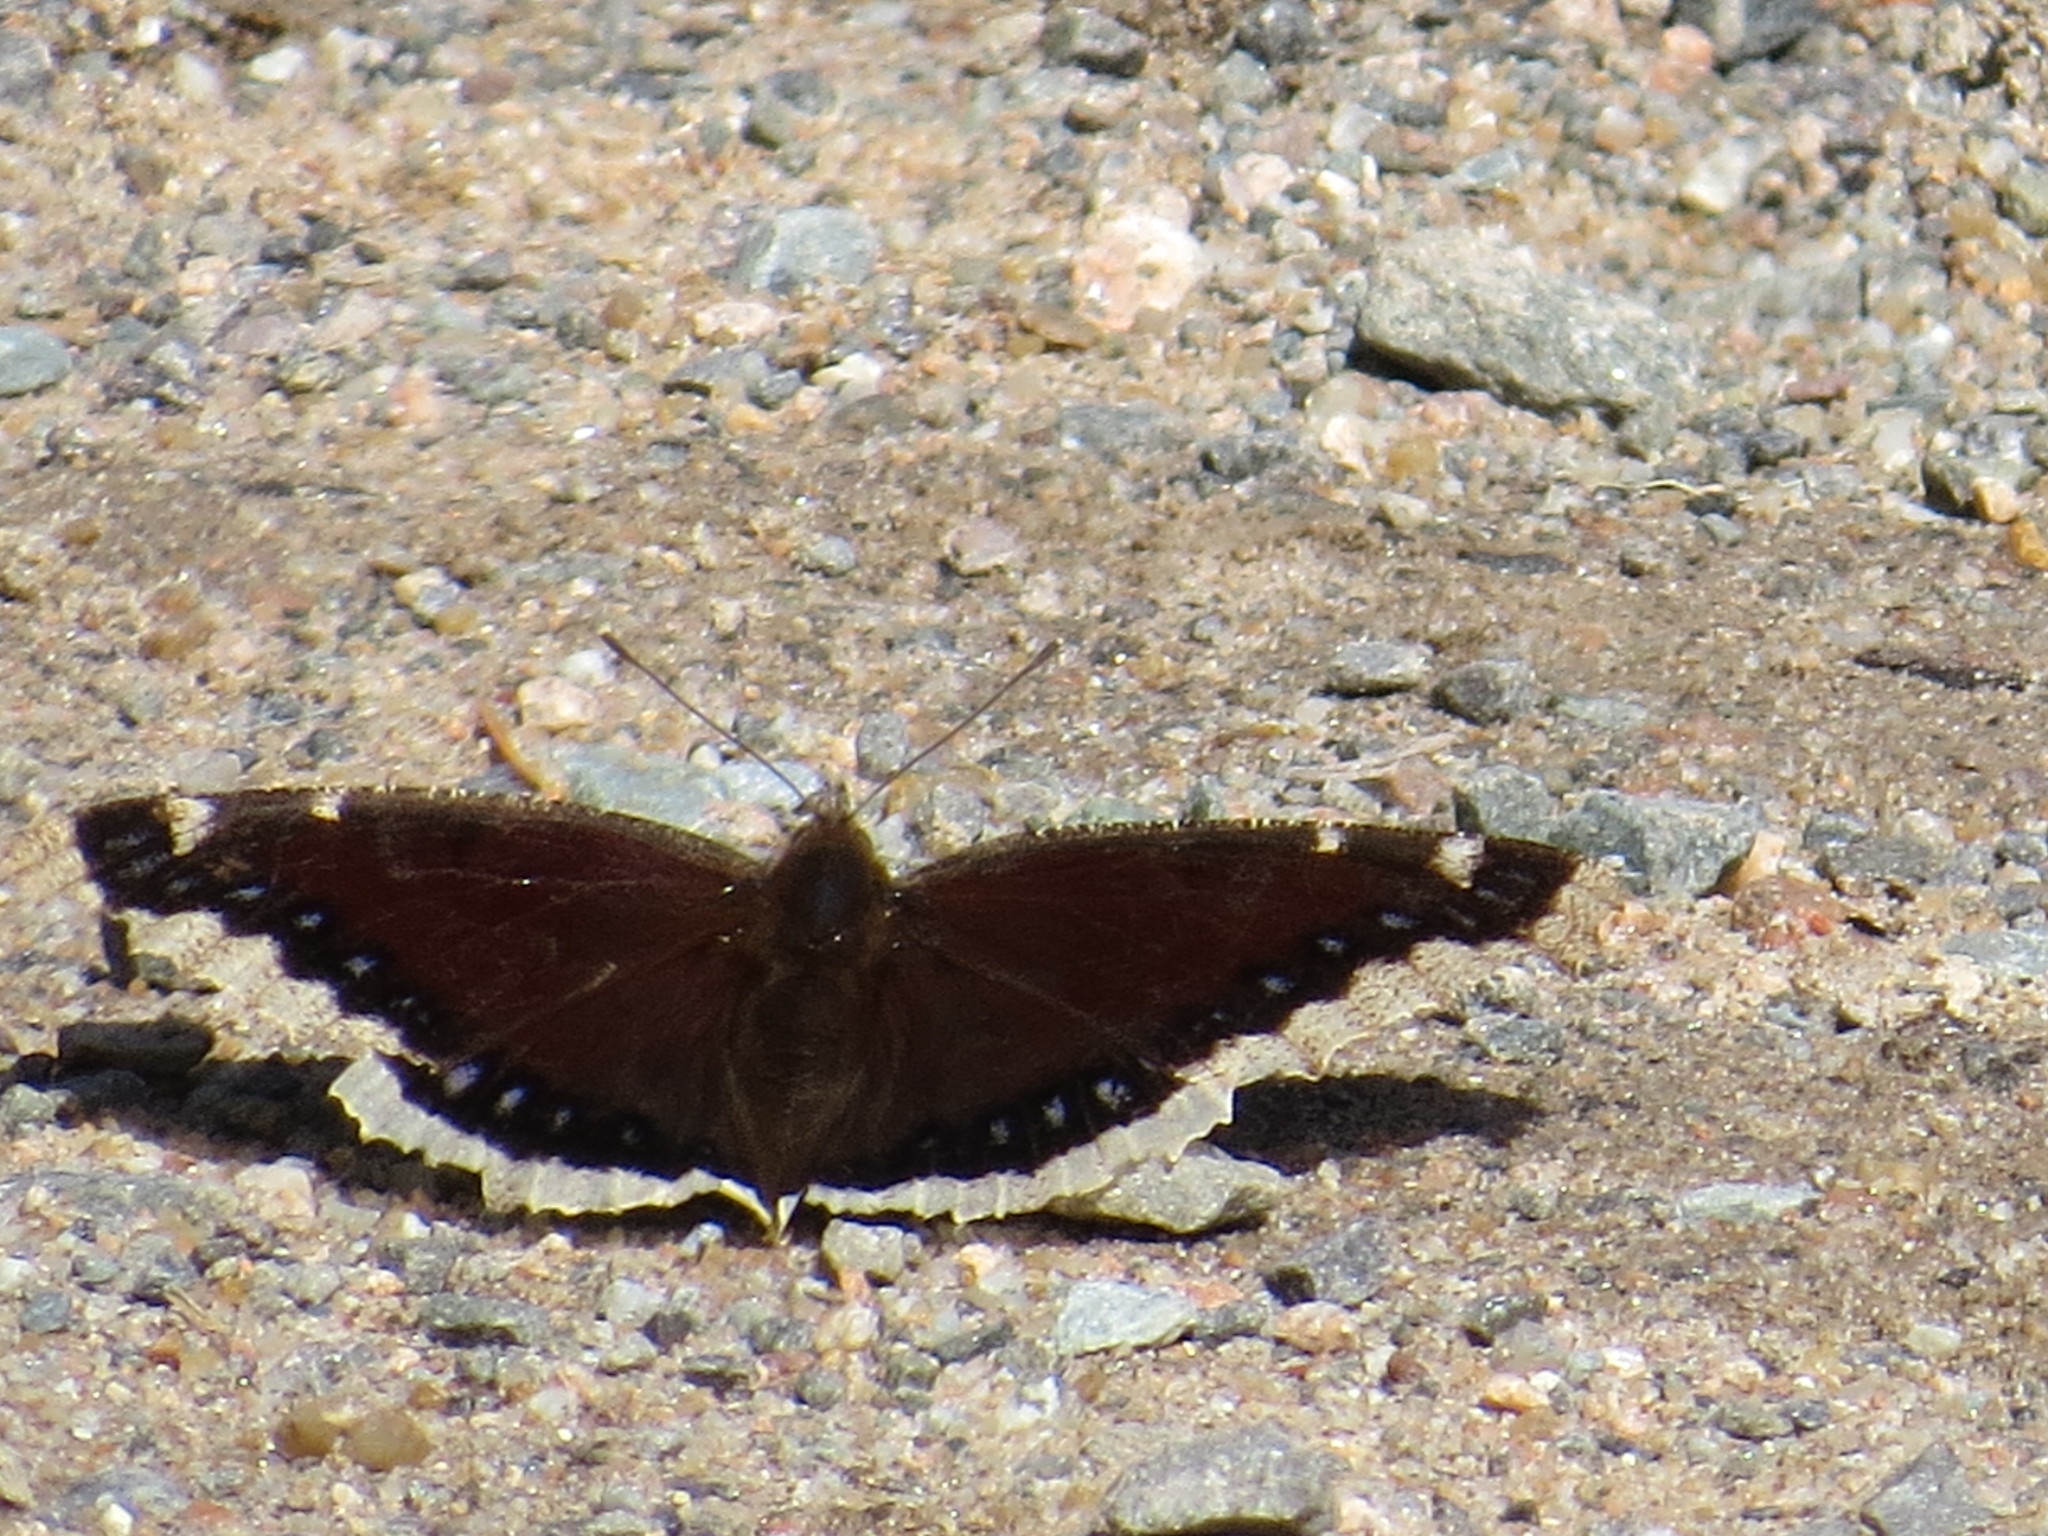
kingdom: Animalia
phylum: Arthropoda
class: Insecta
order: Lepidoptera
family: Nymphalidae
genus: Nymphalis
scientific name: Nymphalis antiopa
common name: Camberwell beauty
